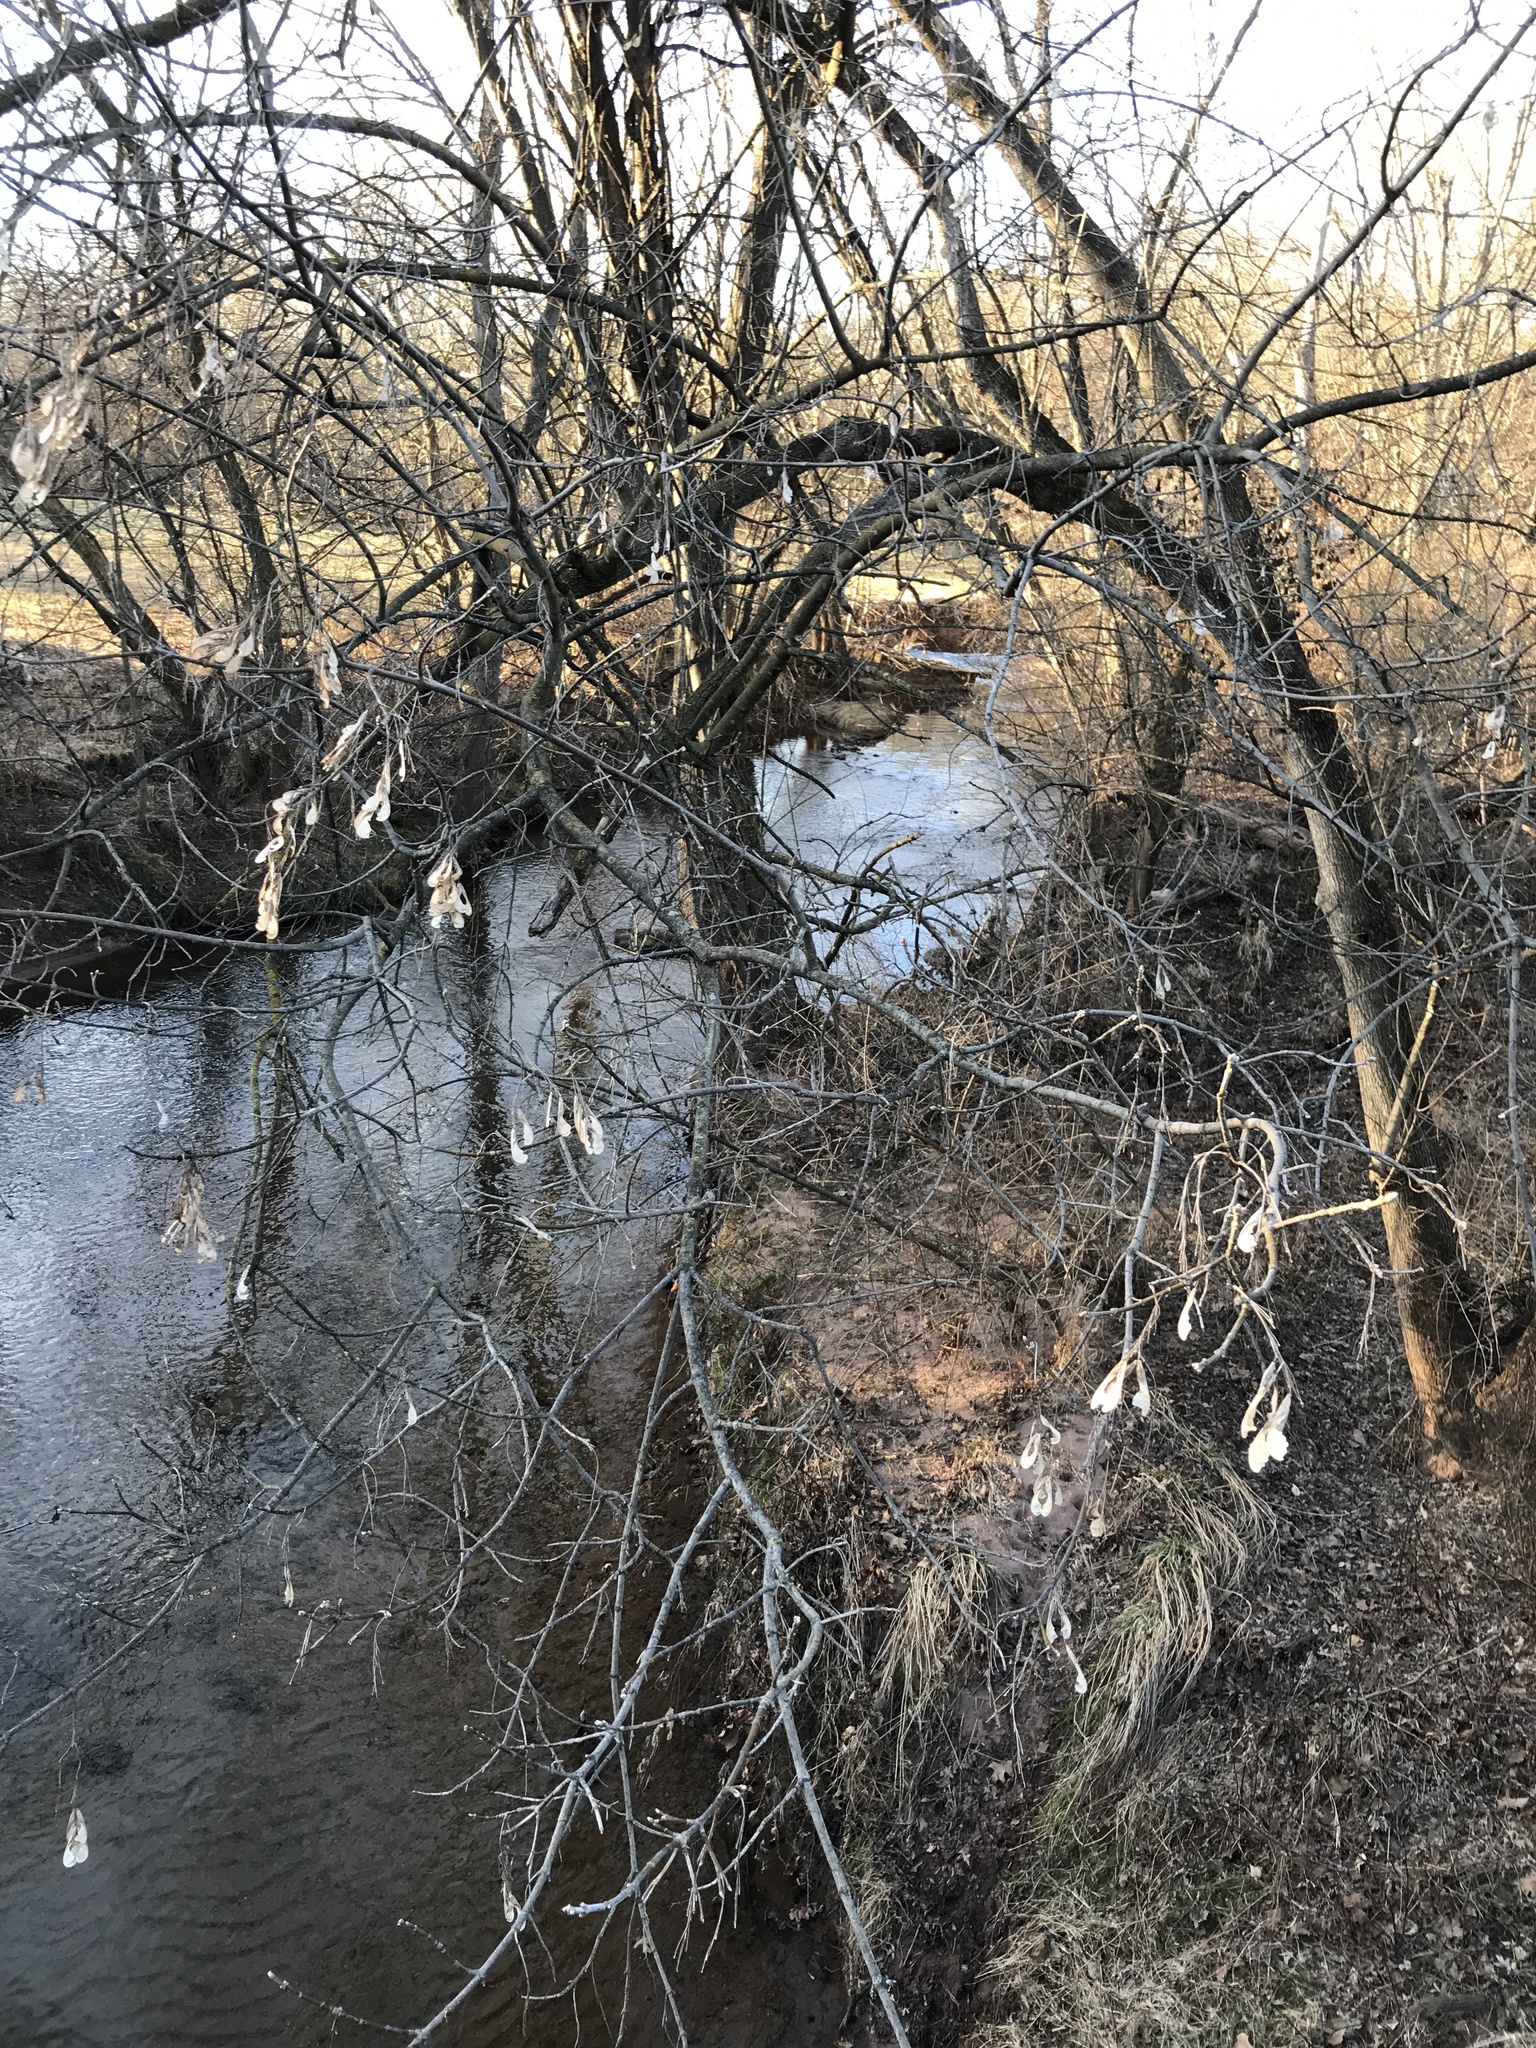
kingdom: Plantae
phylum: Tracheophyta
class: Magnoliopsida
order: Sapindales
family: Sapindaceae
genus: Acer
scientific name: Acer negundo
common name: Ashleaf maple
